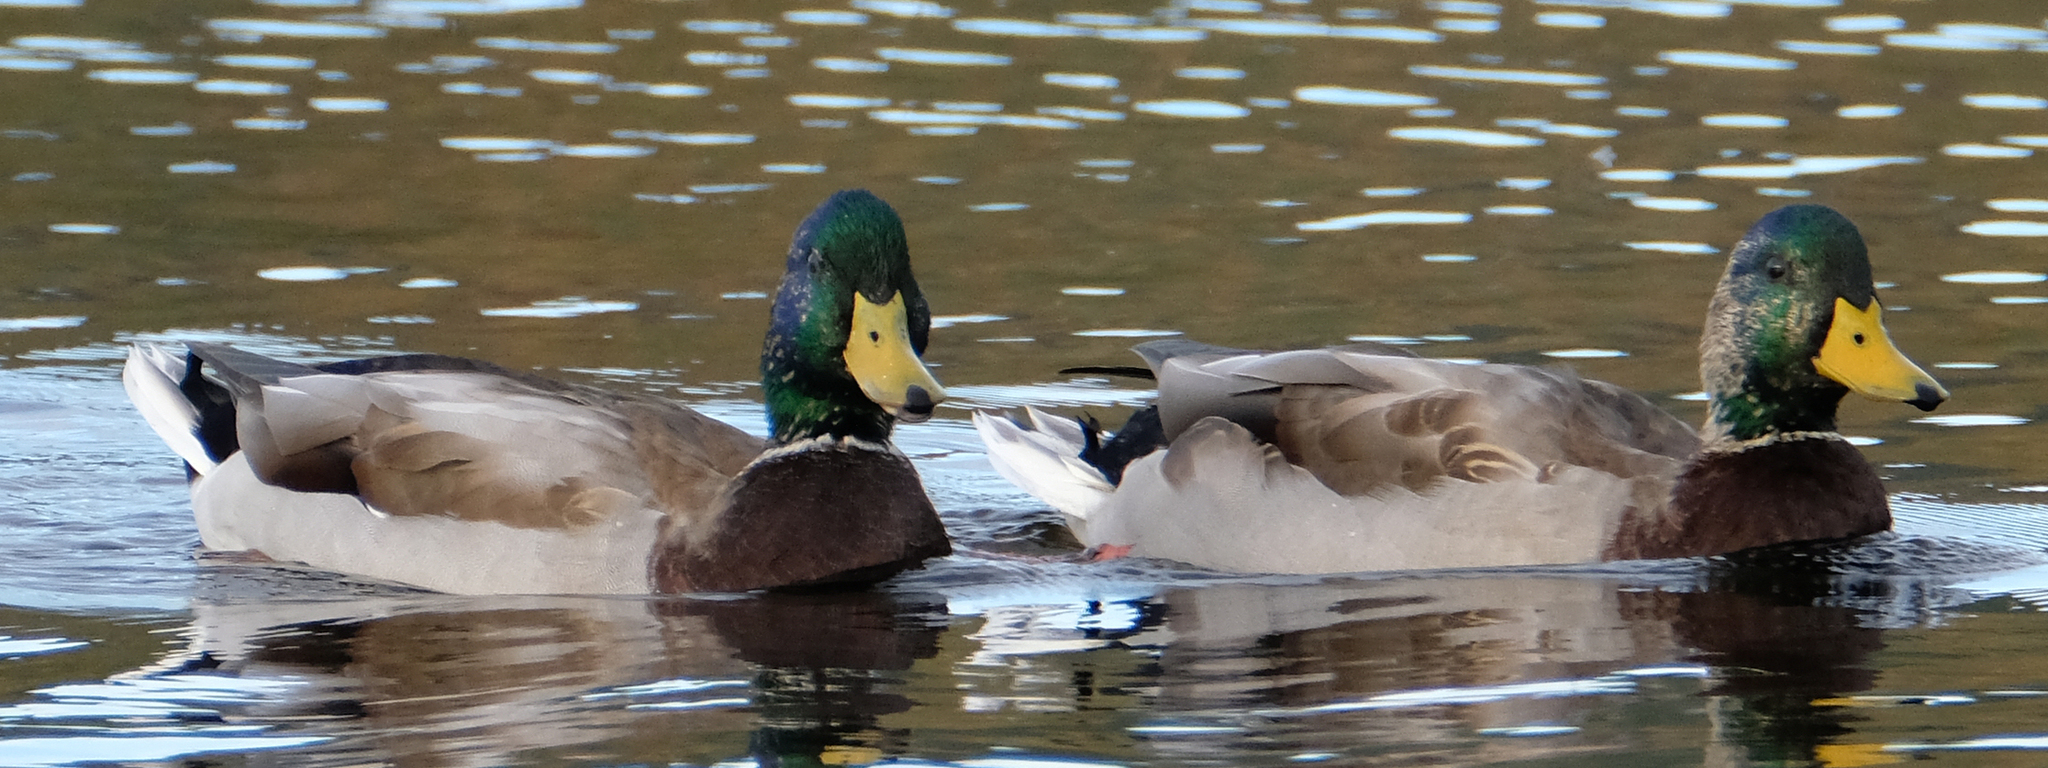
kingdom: Animalia
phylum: Chordata
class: Aves
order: Anseriformes
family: Anatidae
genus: Anas
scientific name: Anas platyrhynchos
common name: Mallard
